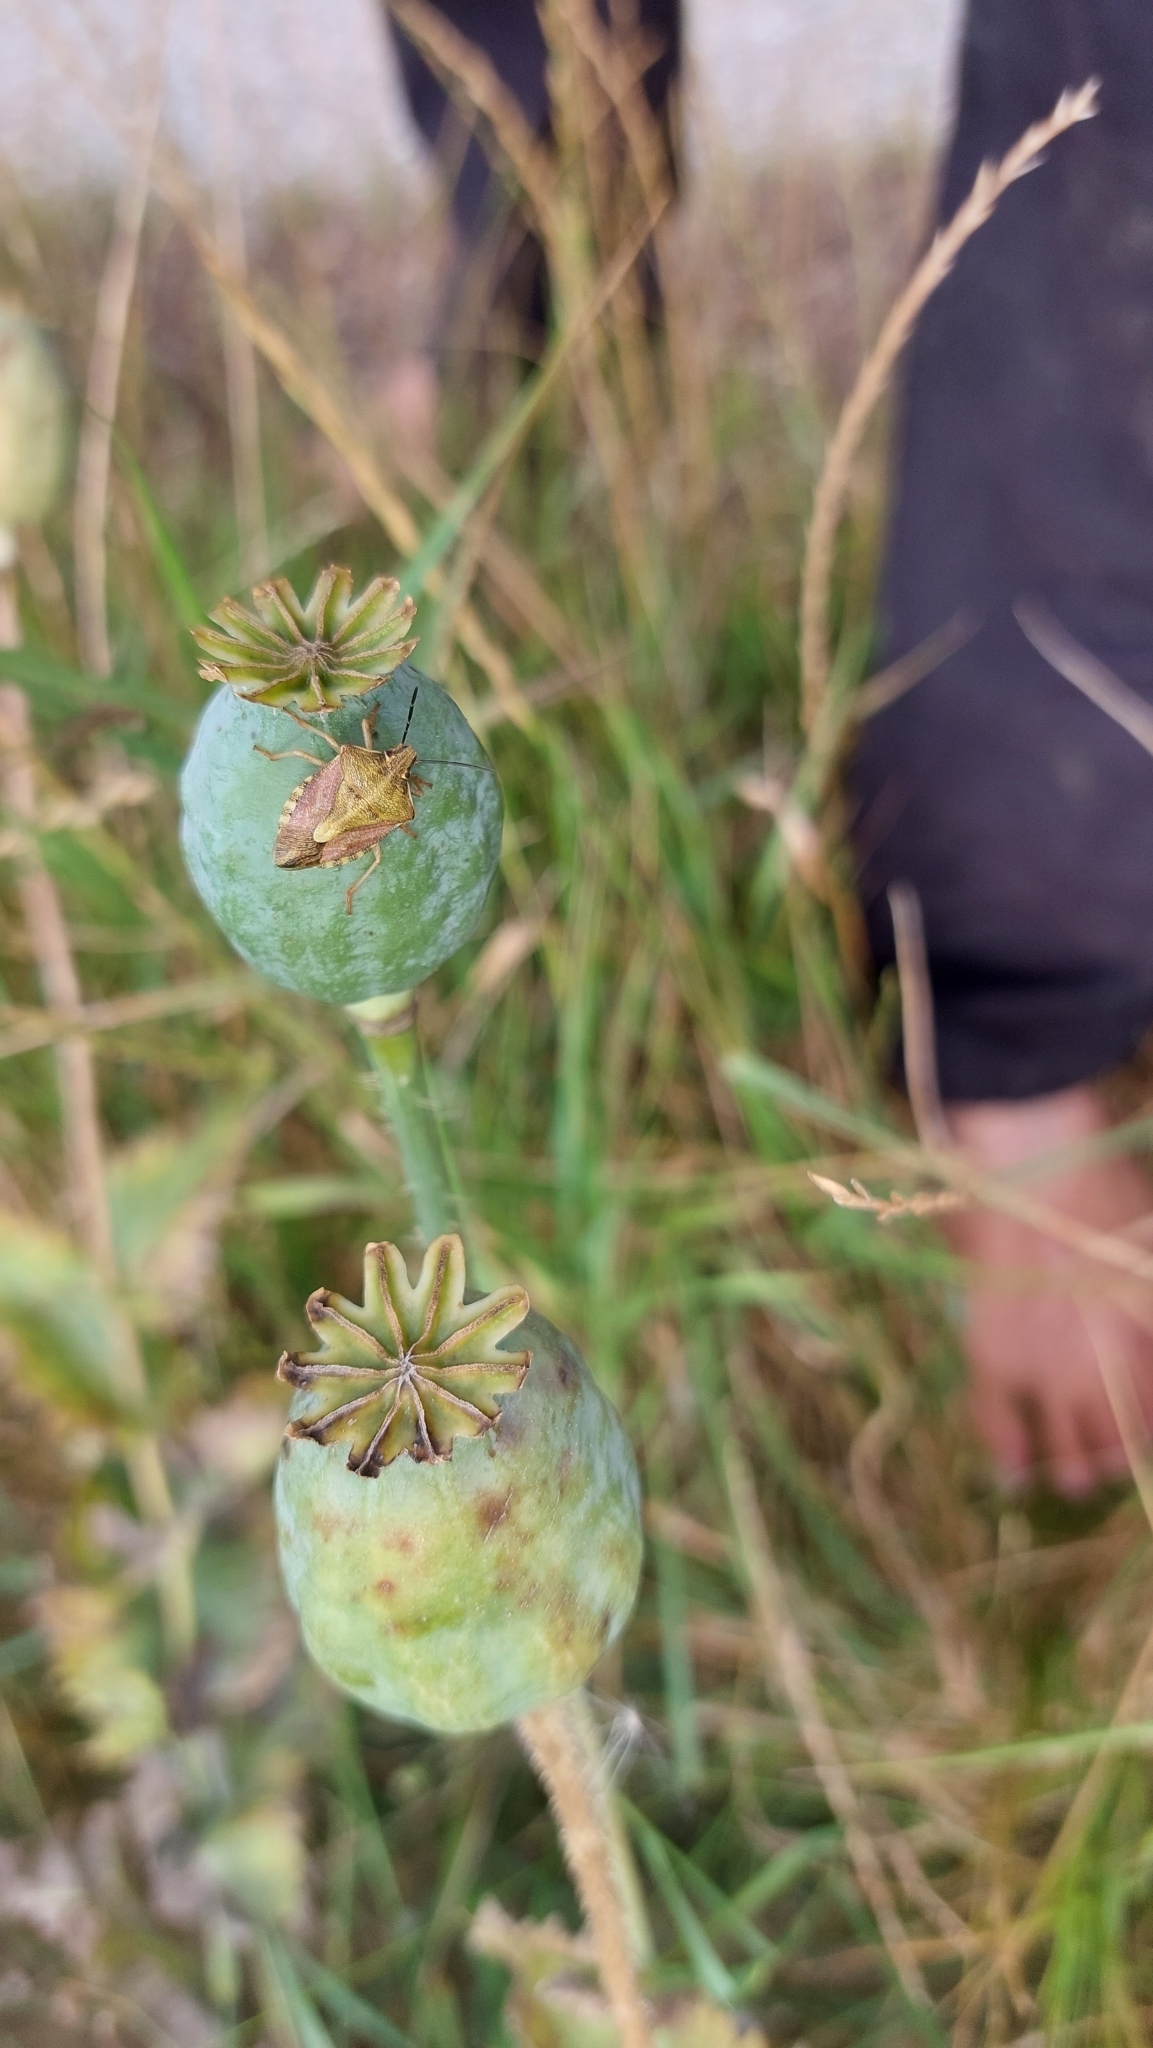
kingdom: Animalia
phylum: Arthropoda
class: Insecta
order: Hemiptera
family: Pentatomidae
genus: Carpocoris
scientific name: Carpocoris purpureipennis
